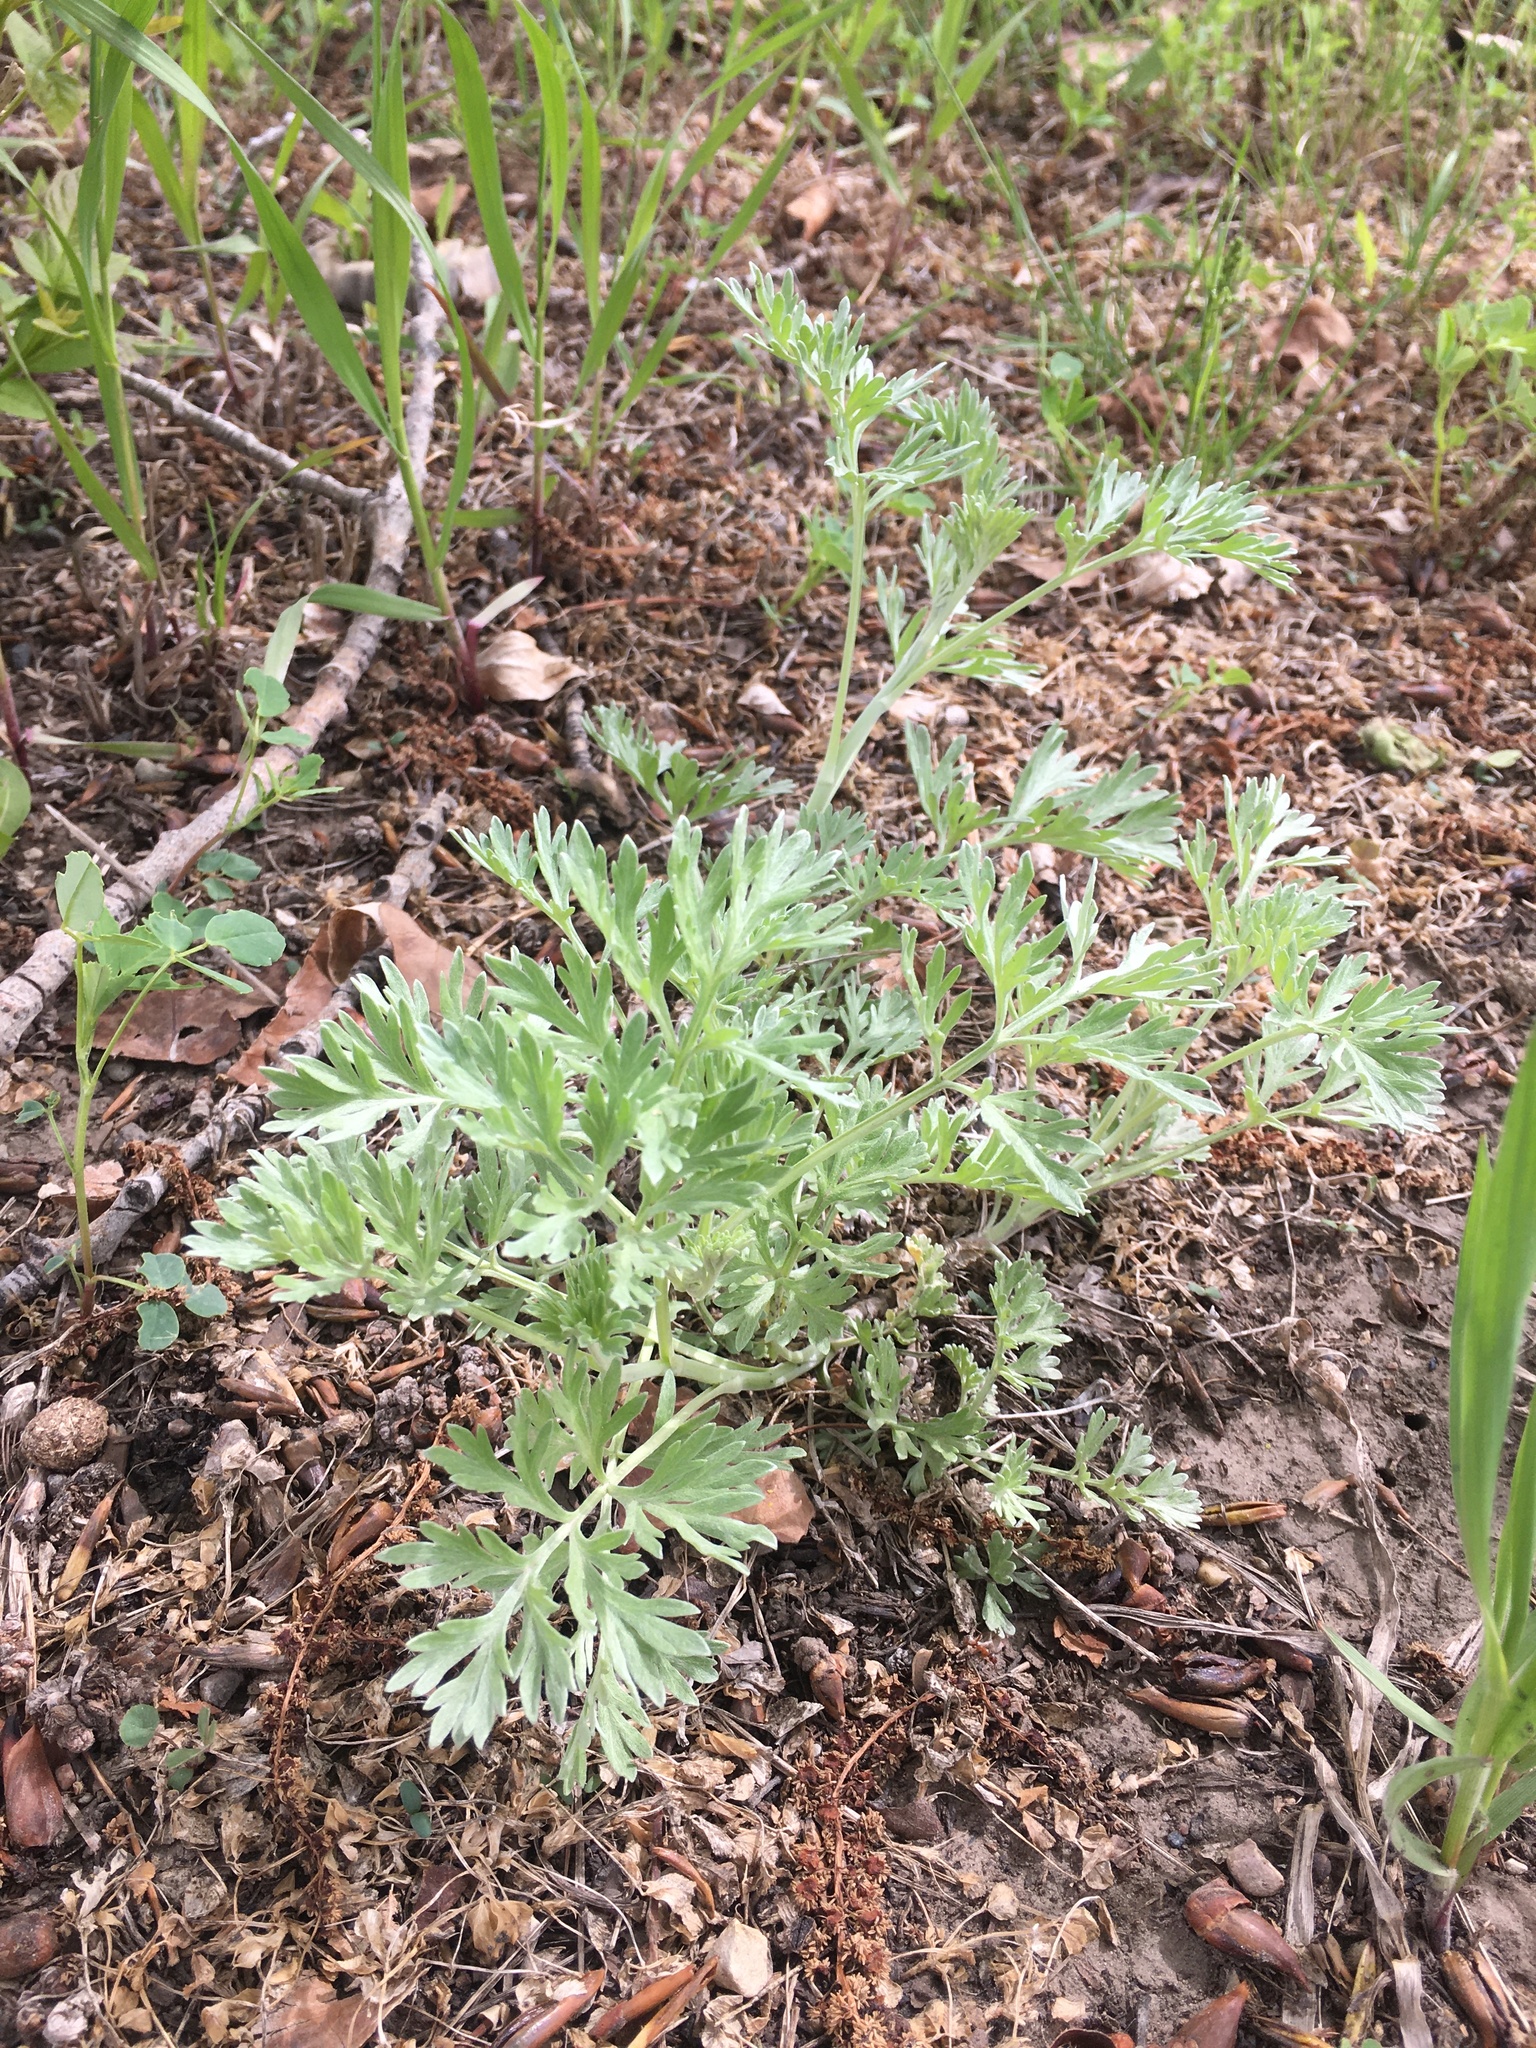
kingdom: Plantae
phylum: Tracheophyta
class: Magnoliopsida
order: Asterales
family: Asteraceae
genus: Artemisia
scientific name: Artemisia absinthium
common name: Wormwood
